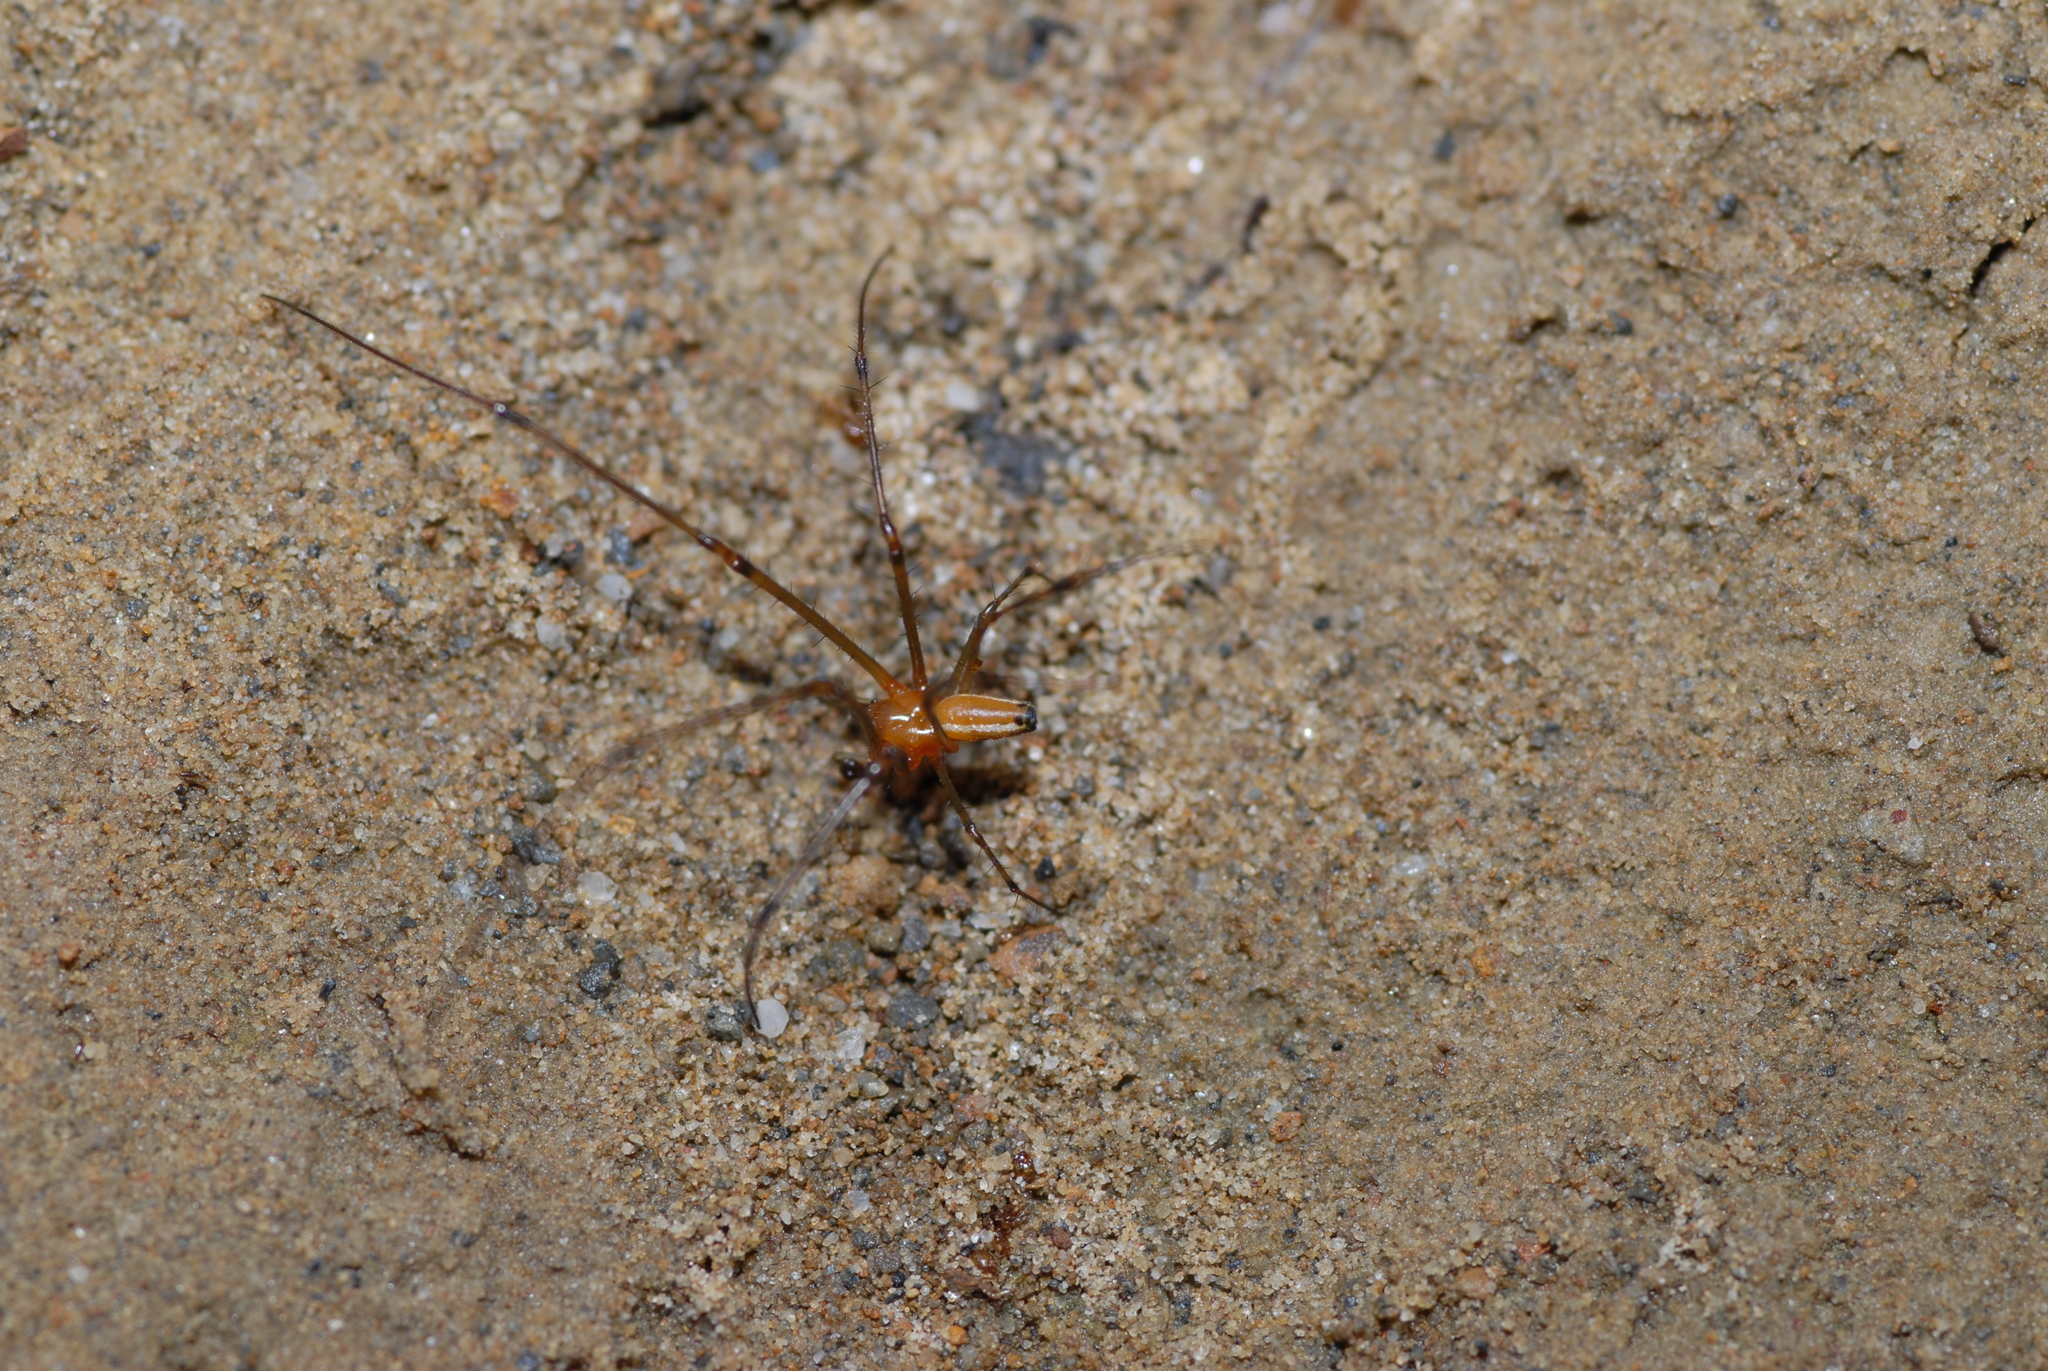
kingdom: Animalia
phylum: Arthropoda
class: Arachnida
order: Araneae
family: Tetragnathidae
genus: Leucauge
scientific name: Leucauge tessellata
